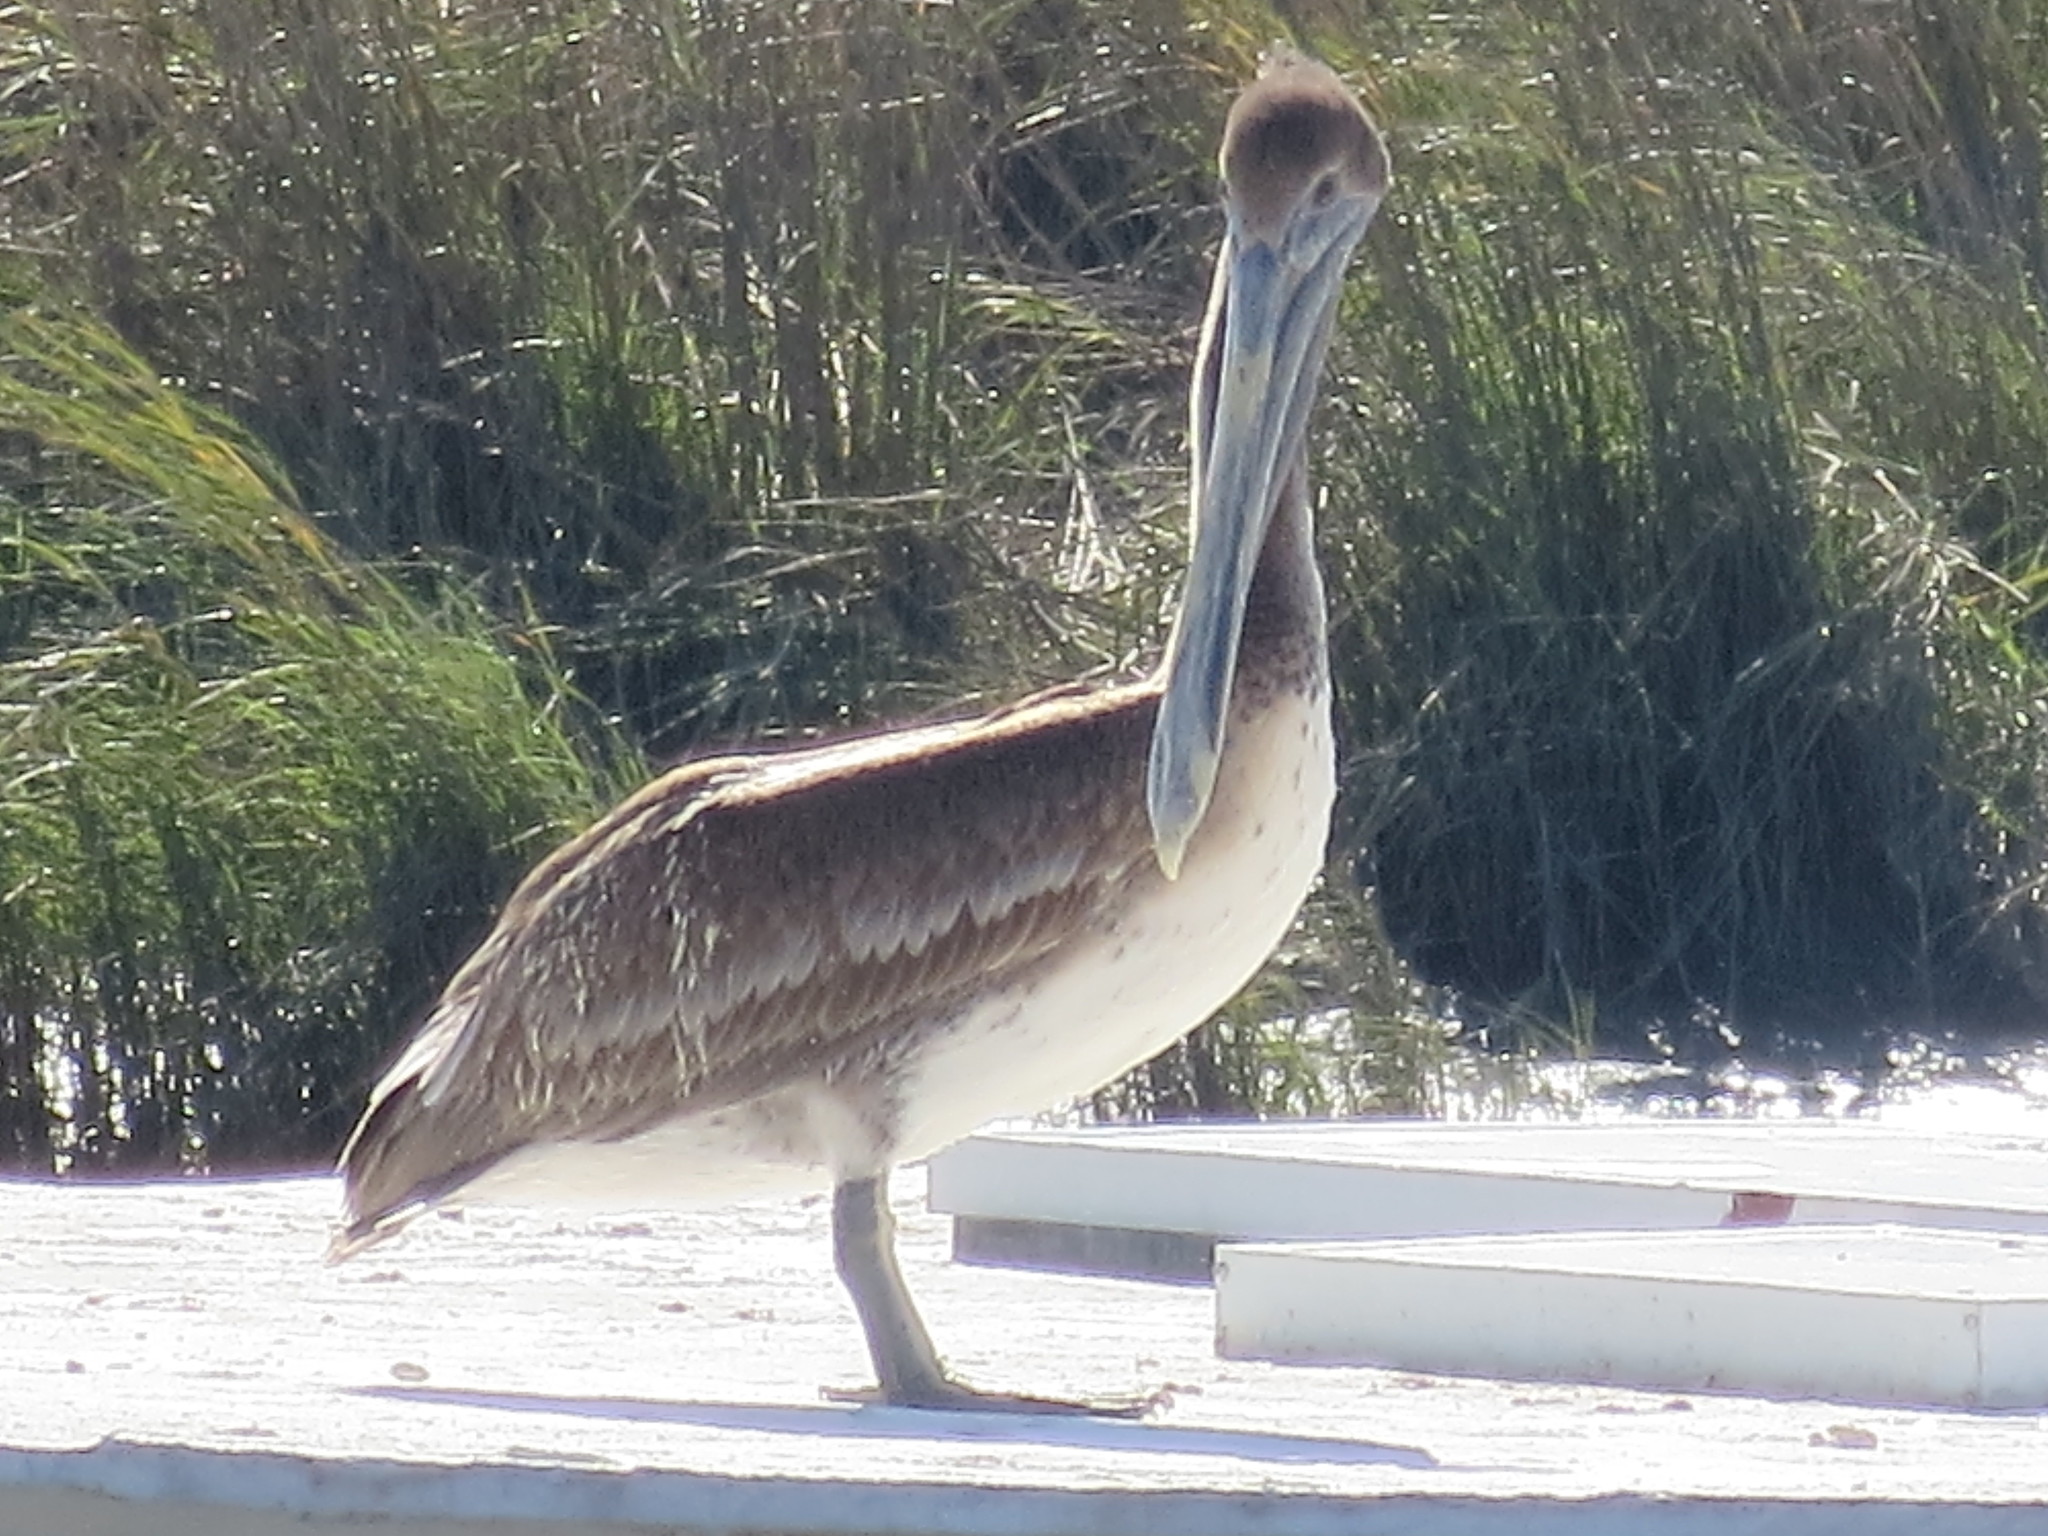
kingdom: Animalia
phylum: Chordata
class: Aves
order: Pelecaniformes
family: Pelecanidae
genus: Pelecanus
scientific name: Pelecanus occidentalis
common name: Brown pelican
